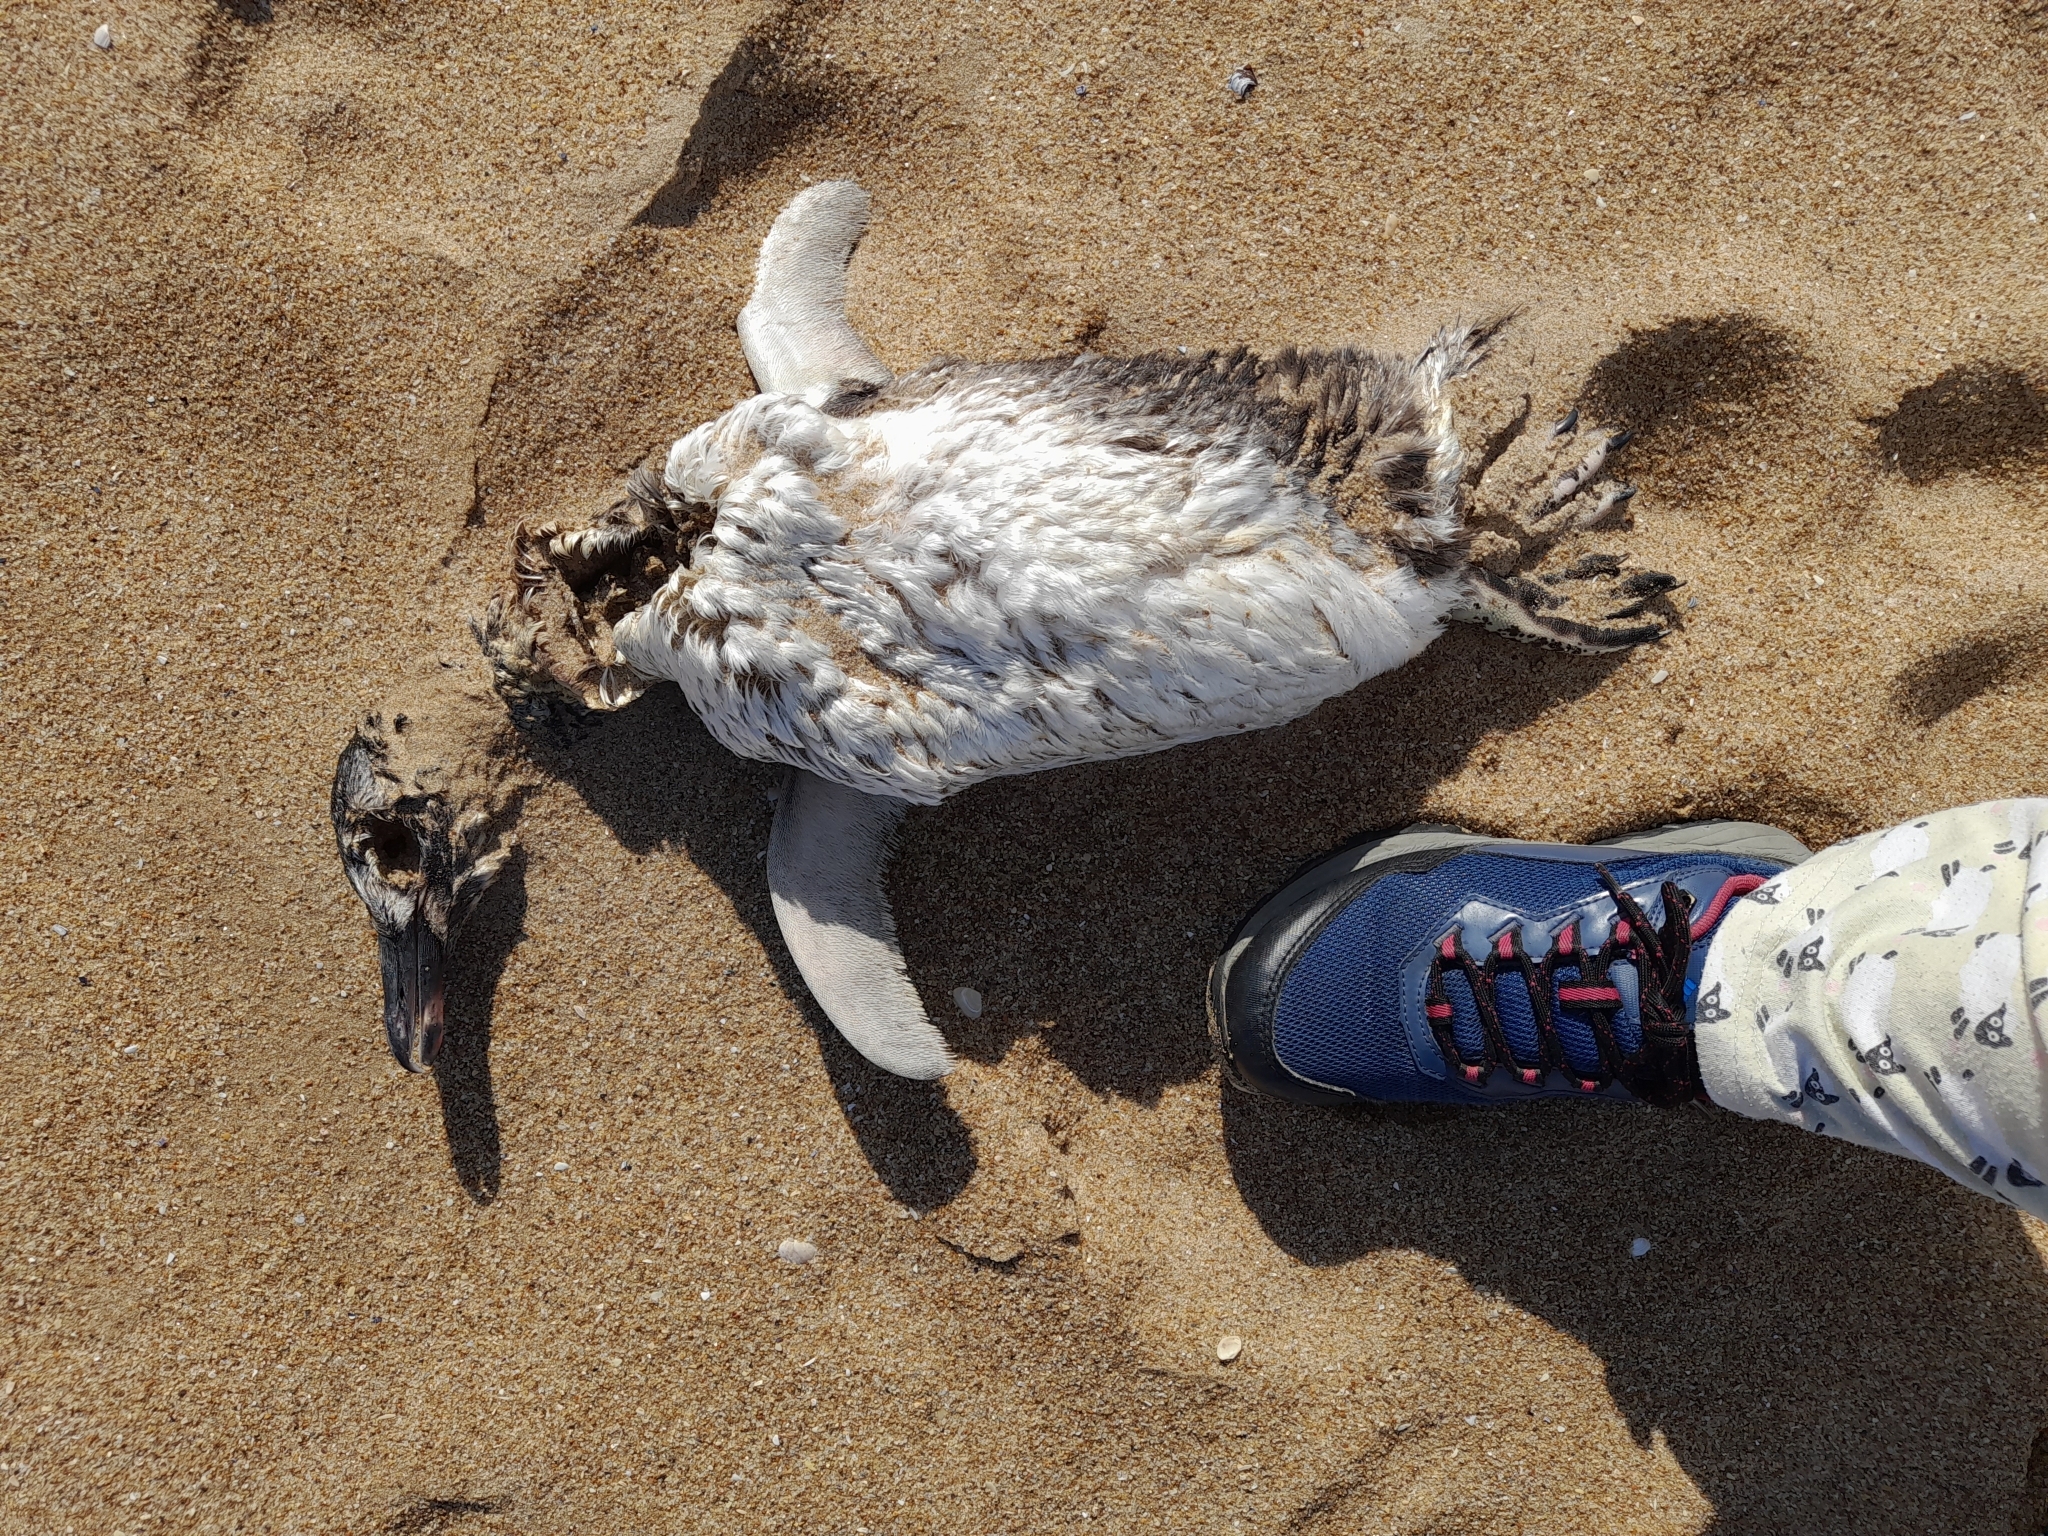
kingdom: Animalia
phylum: Chordata
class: Aves
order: Sphenisciformes
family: Spheniscidae
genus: Spheniscus
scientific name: Spheniscus magellanicus
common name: Magellanic penguin
